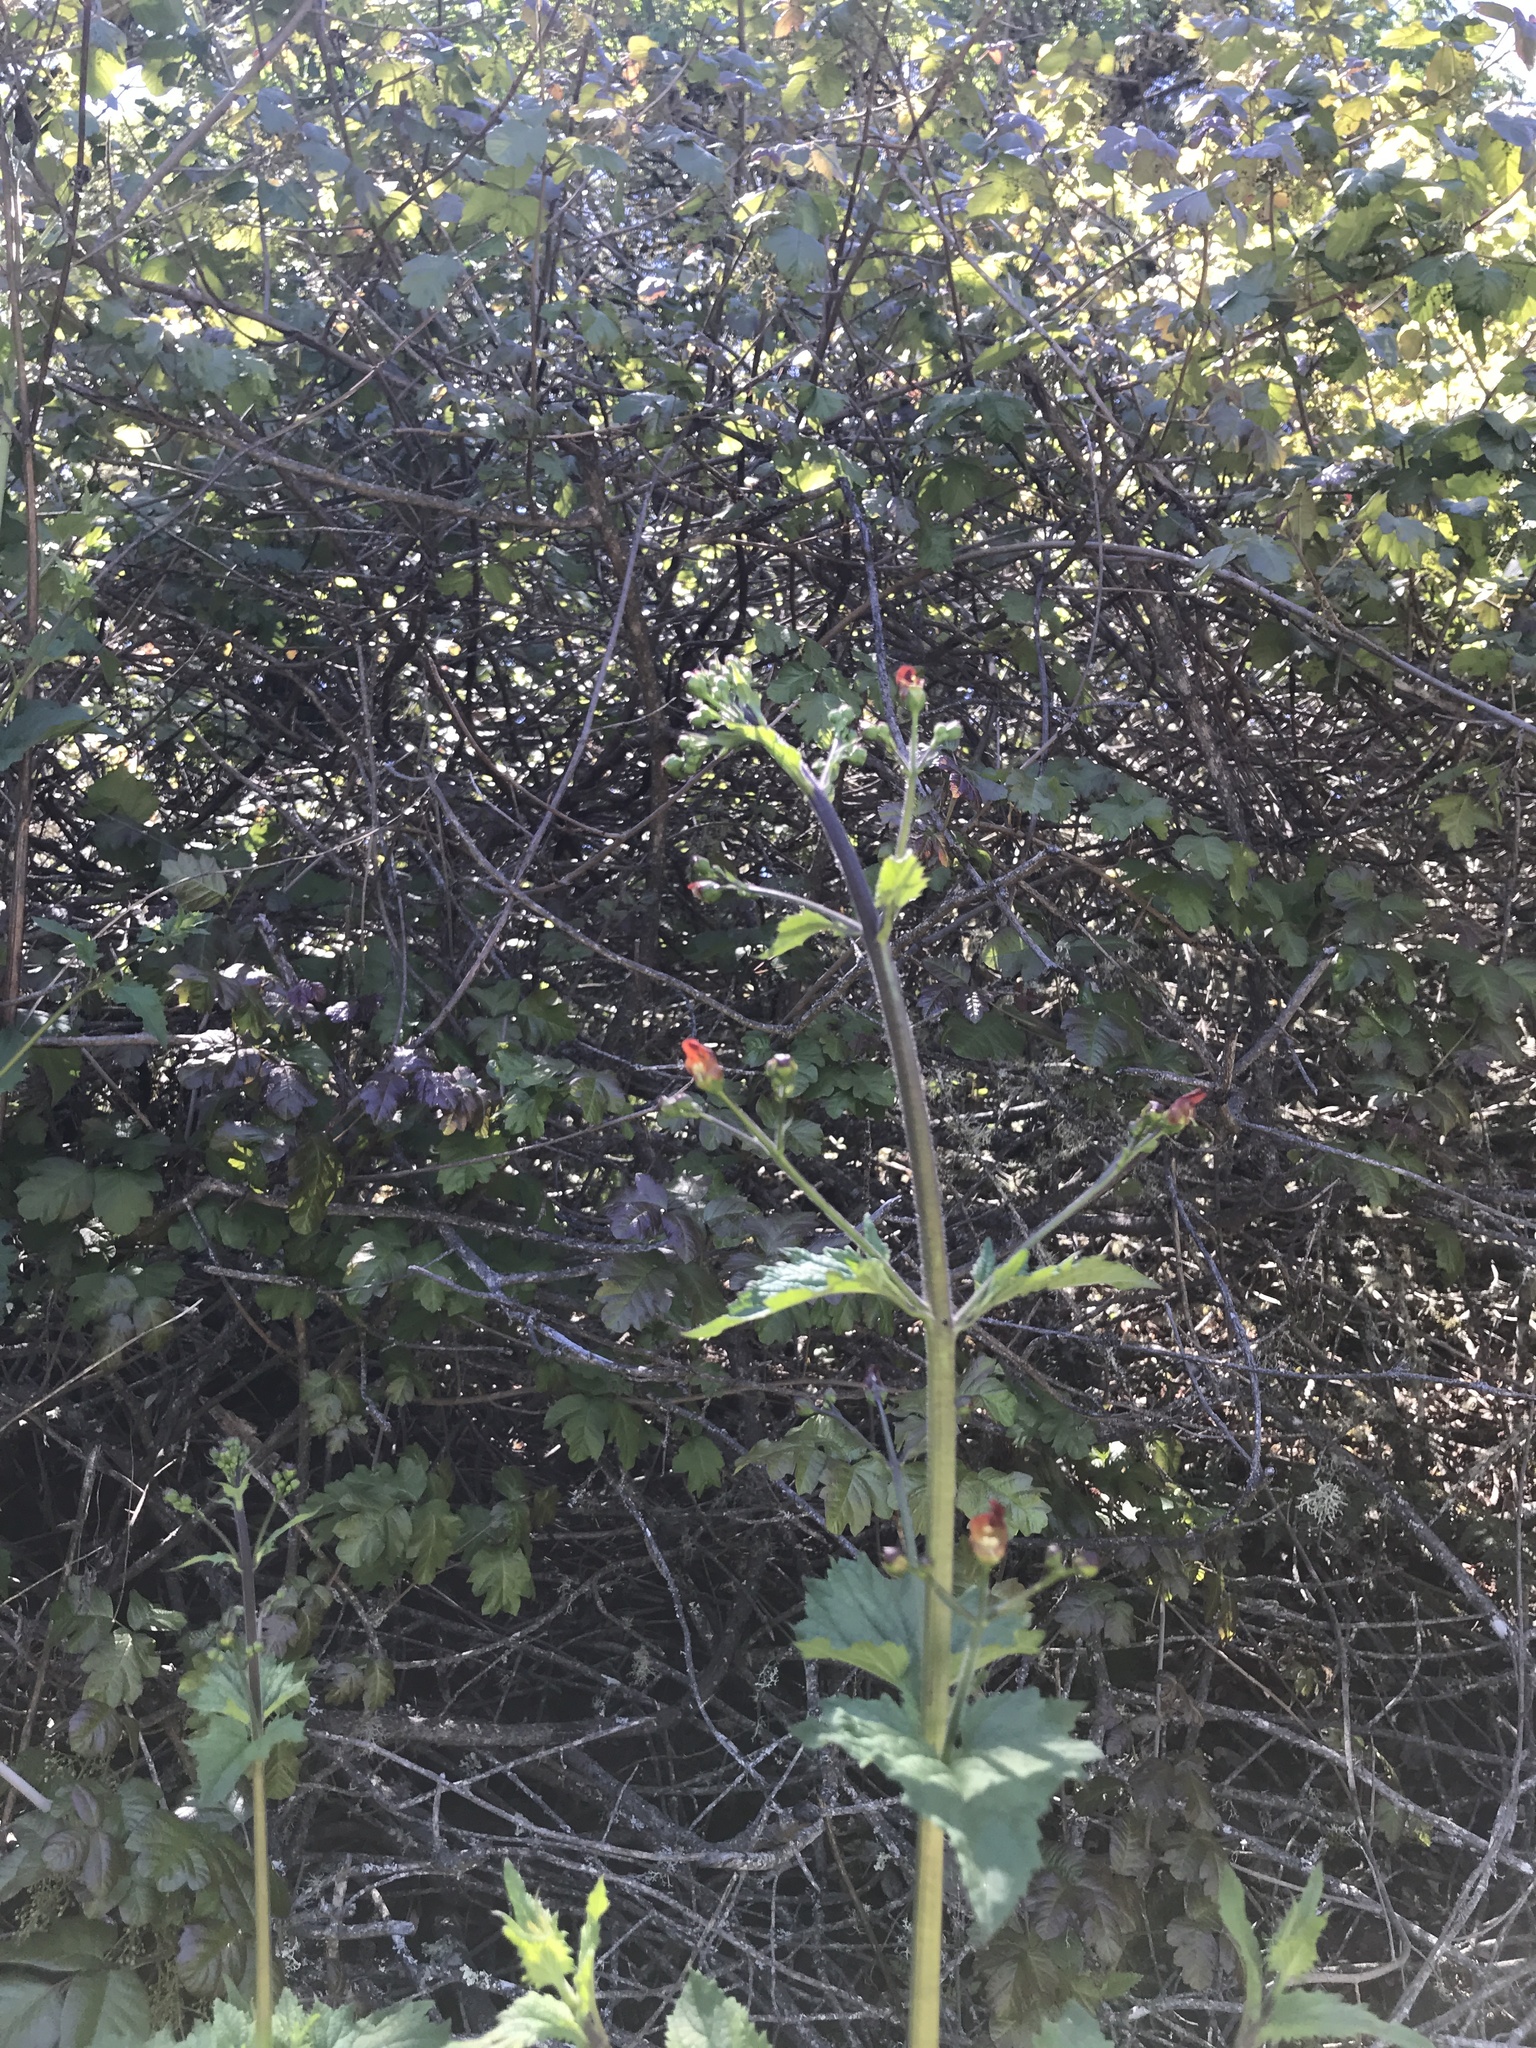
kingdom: Plantae
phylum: Tracheophyta
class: Magnoliopsida
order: Lamiales
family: Scrophulariaceae
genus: Scrophularia
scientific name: Scrophularia californica
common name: California figwort
